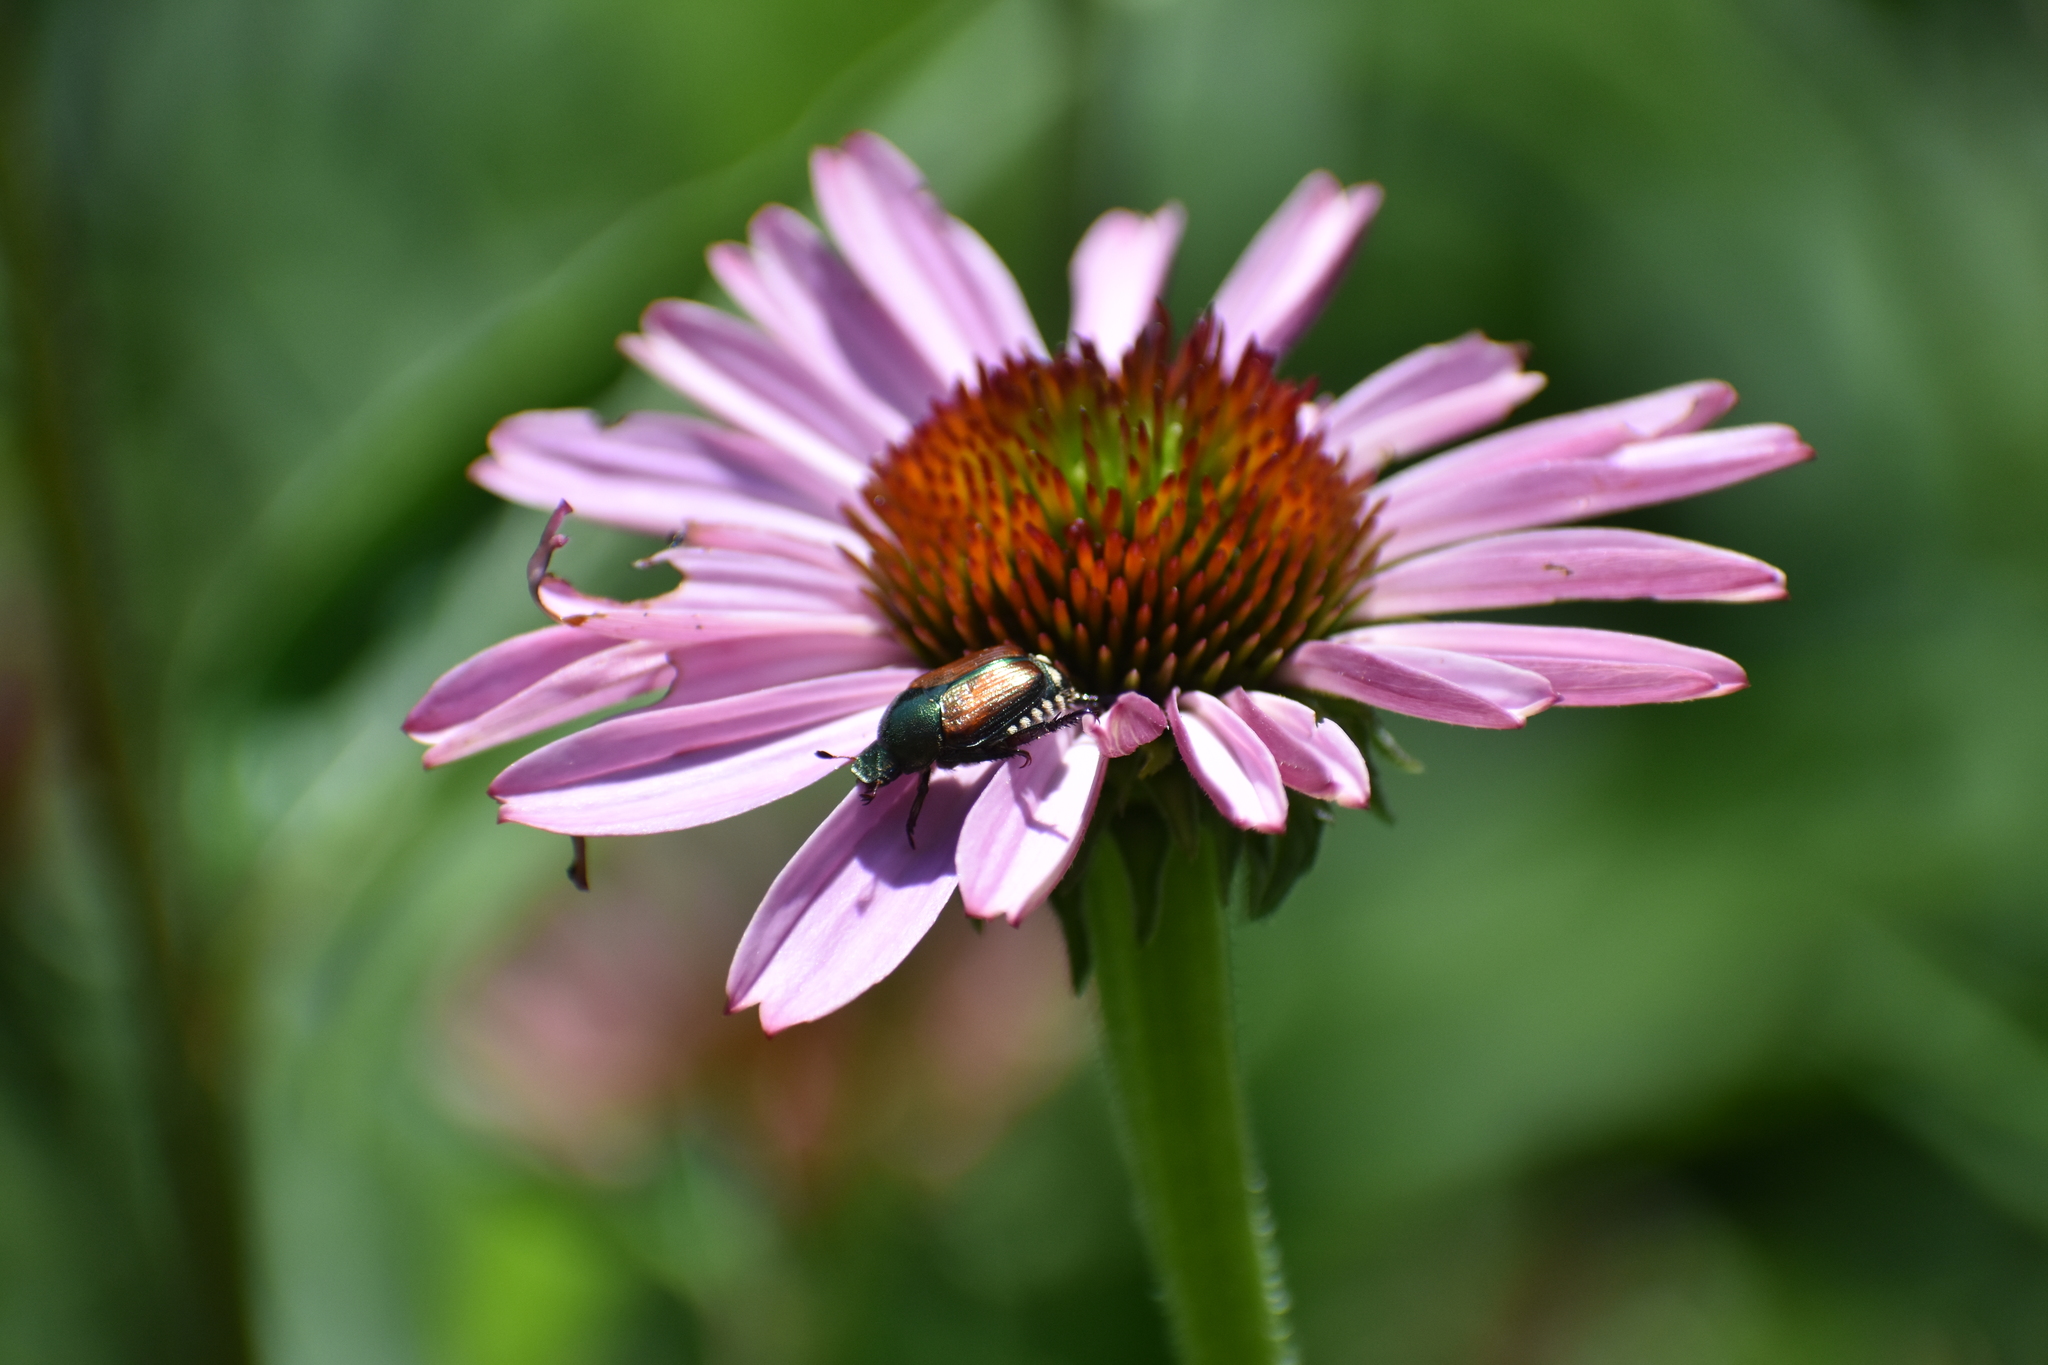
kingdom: Animalia
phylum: Arthropoda
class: Insecta
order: Coleoptera
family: Scarabaeidae
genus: Popillia
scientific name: Popillia japonica
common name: Japanese beetle
